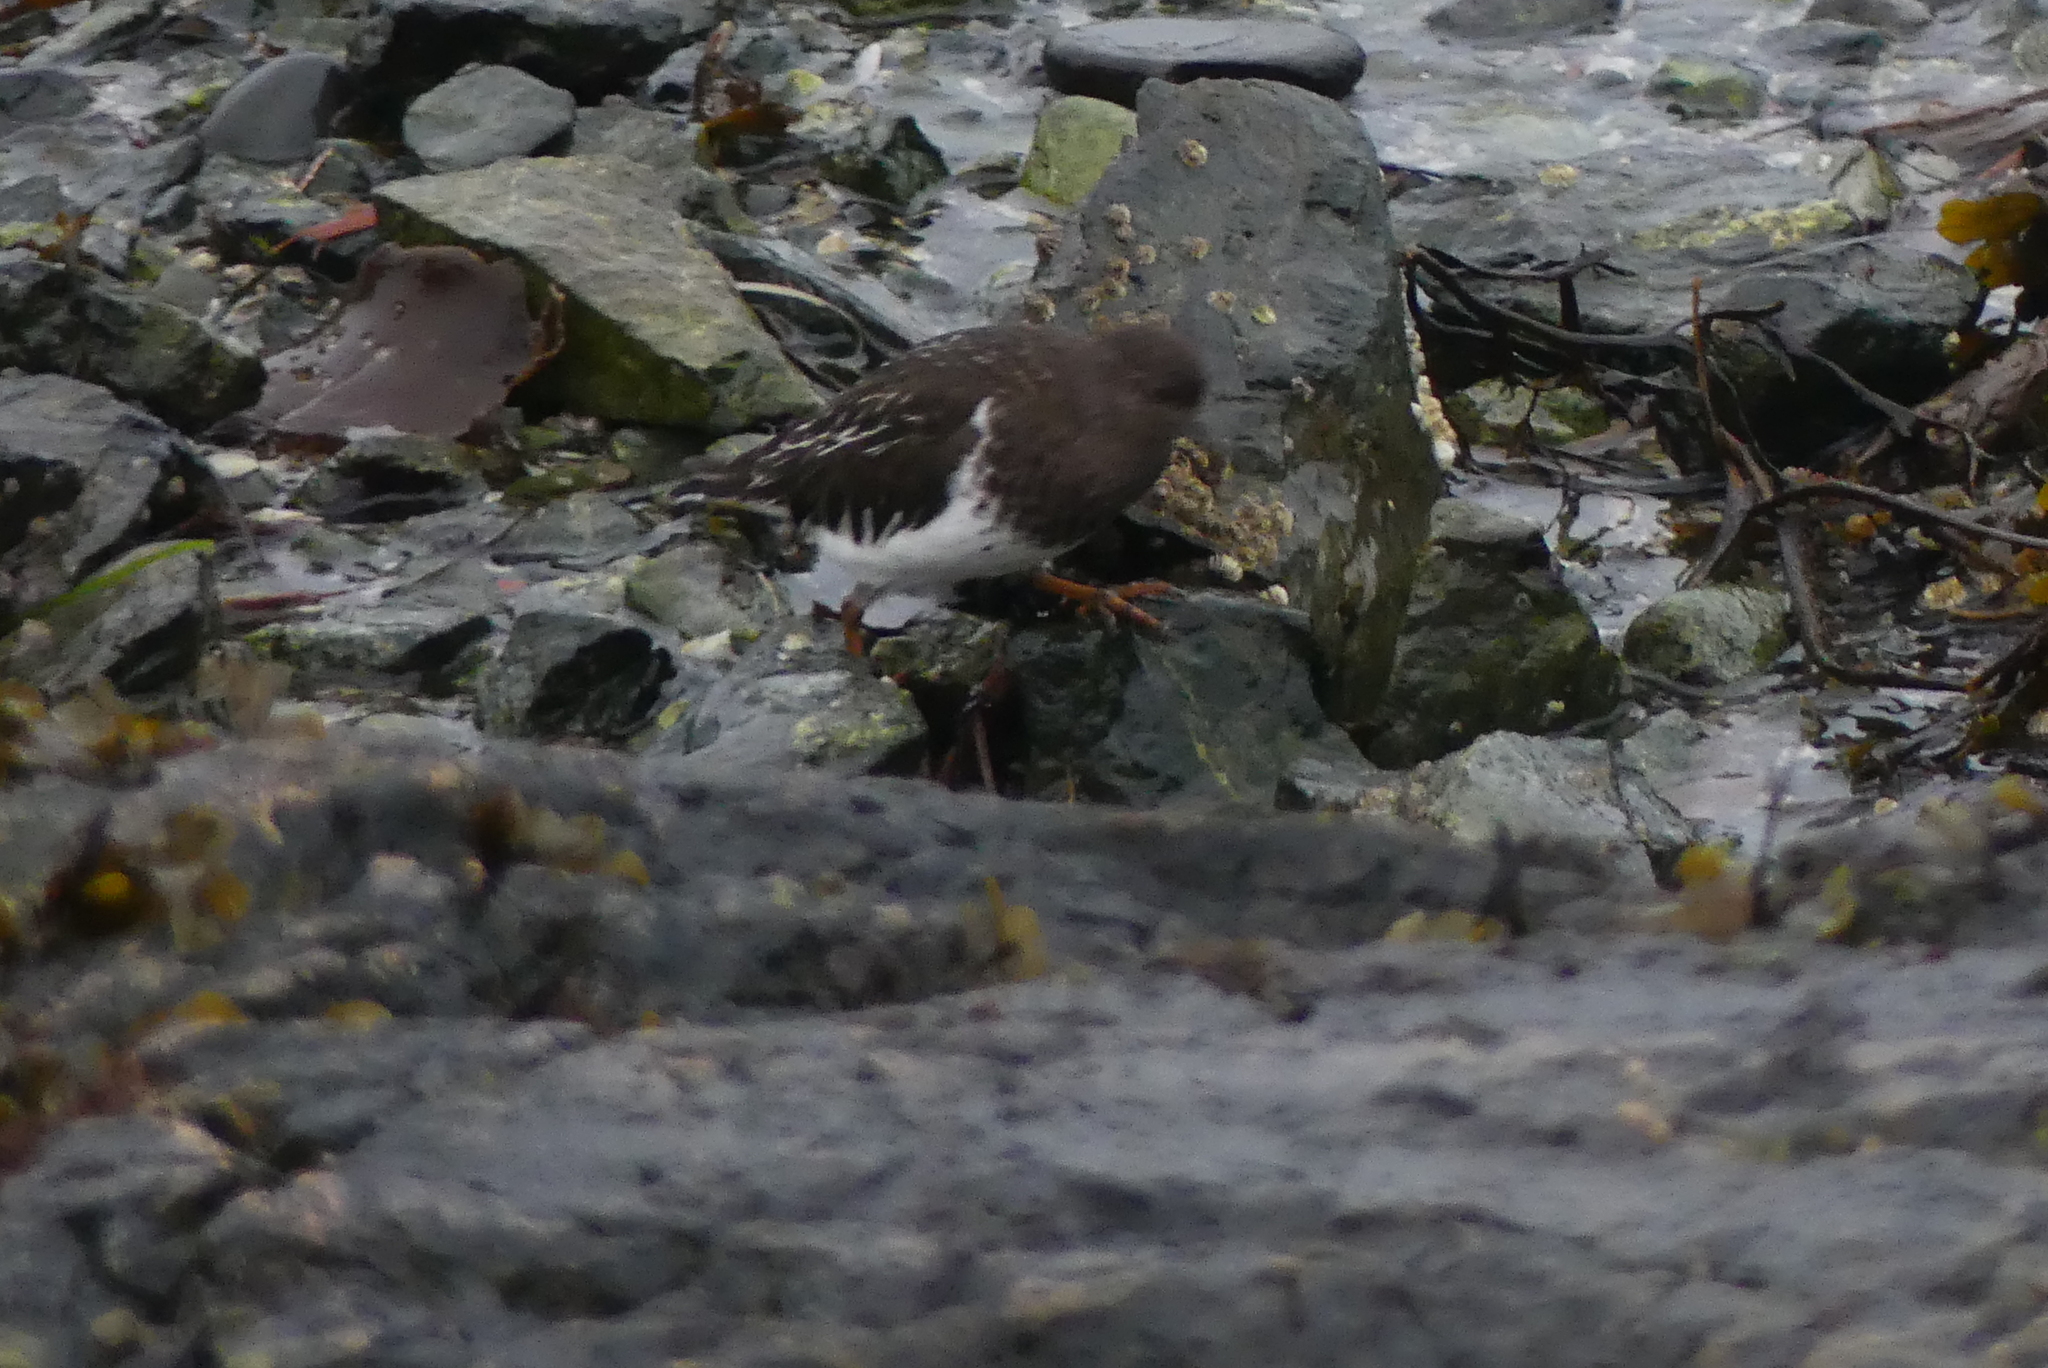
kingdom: Animalia
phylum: Chordata
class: Aves
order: Charadriiformes
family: Scolopacidae
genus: Arenaria
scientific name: Arenaria melanocephala
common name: Black turnstone
